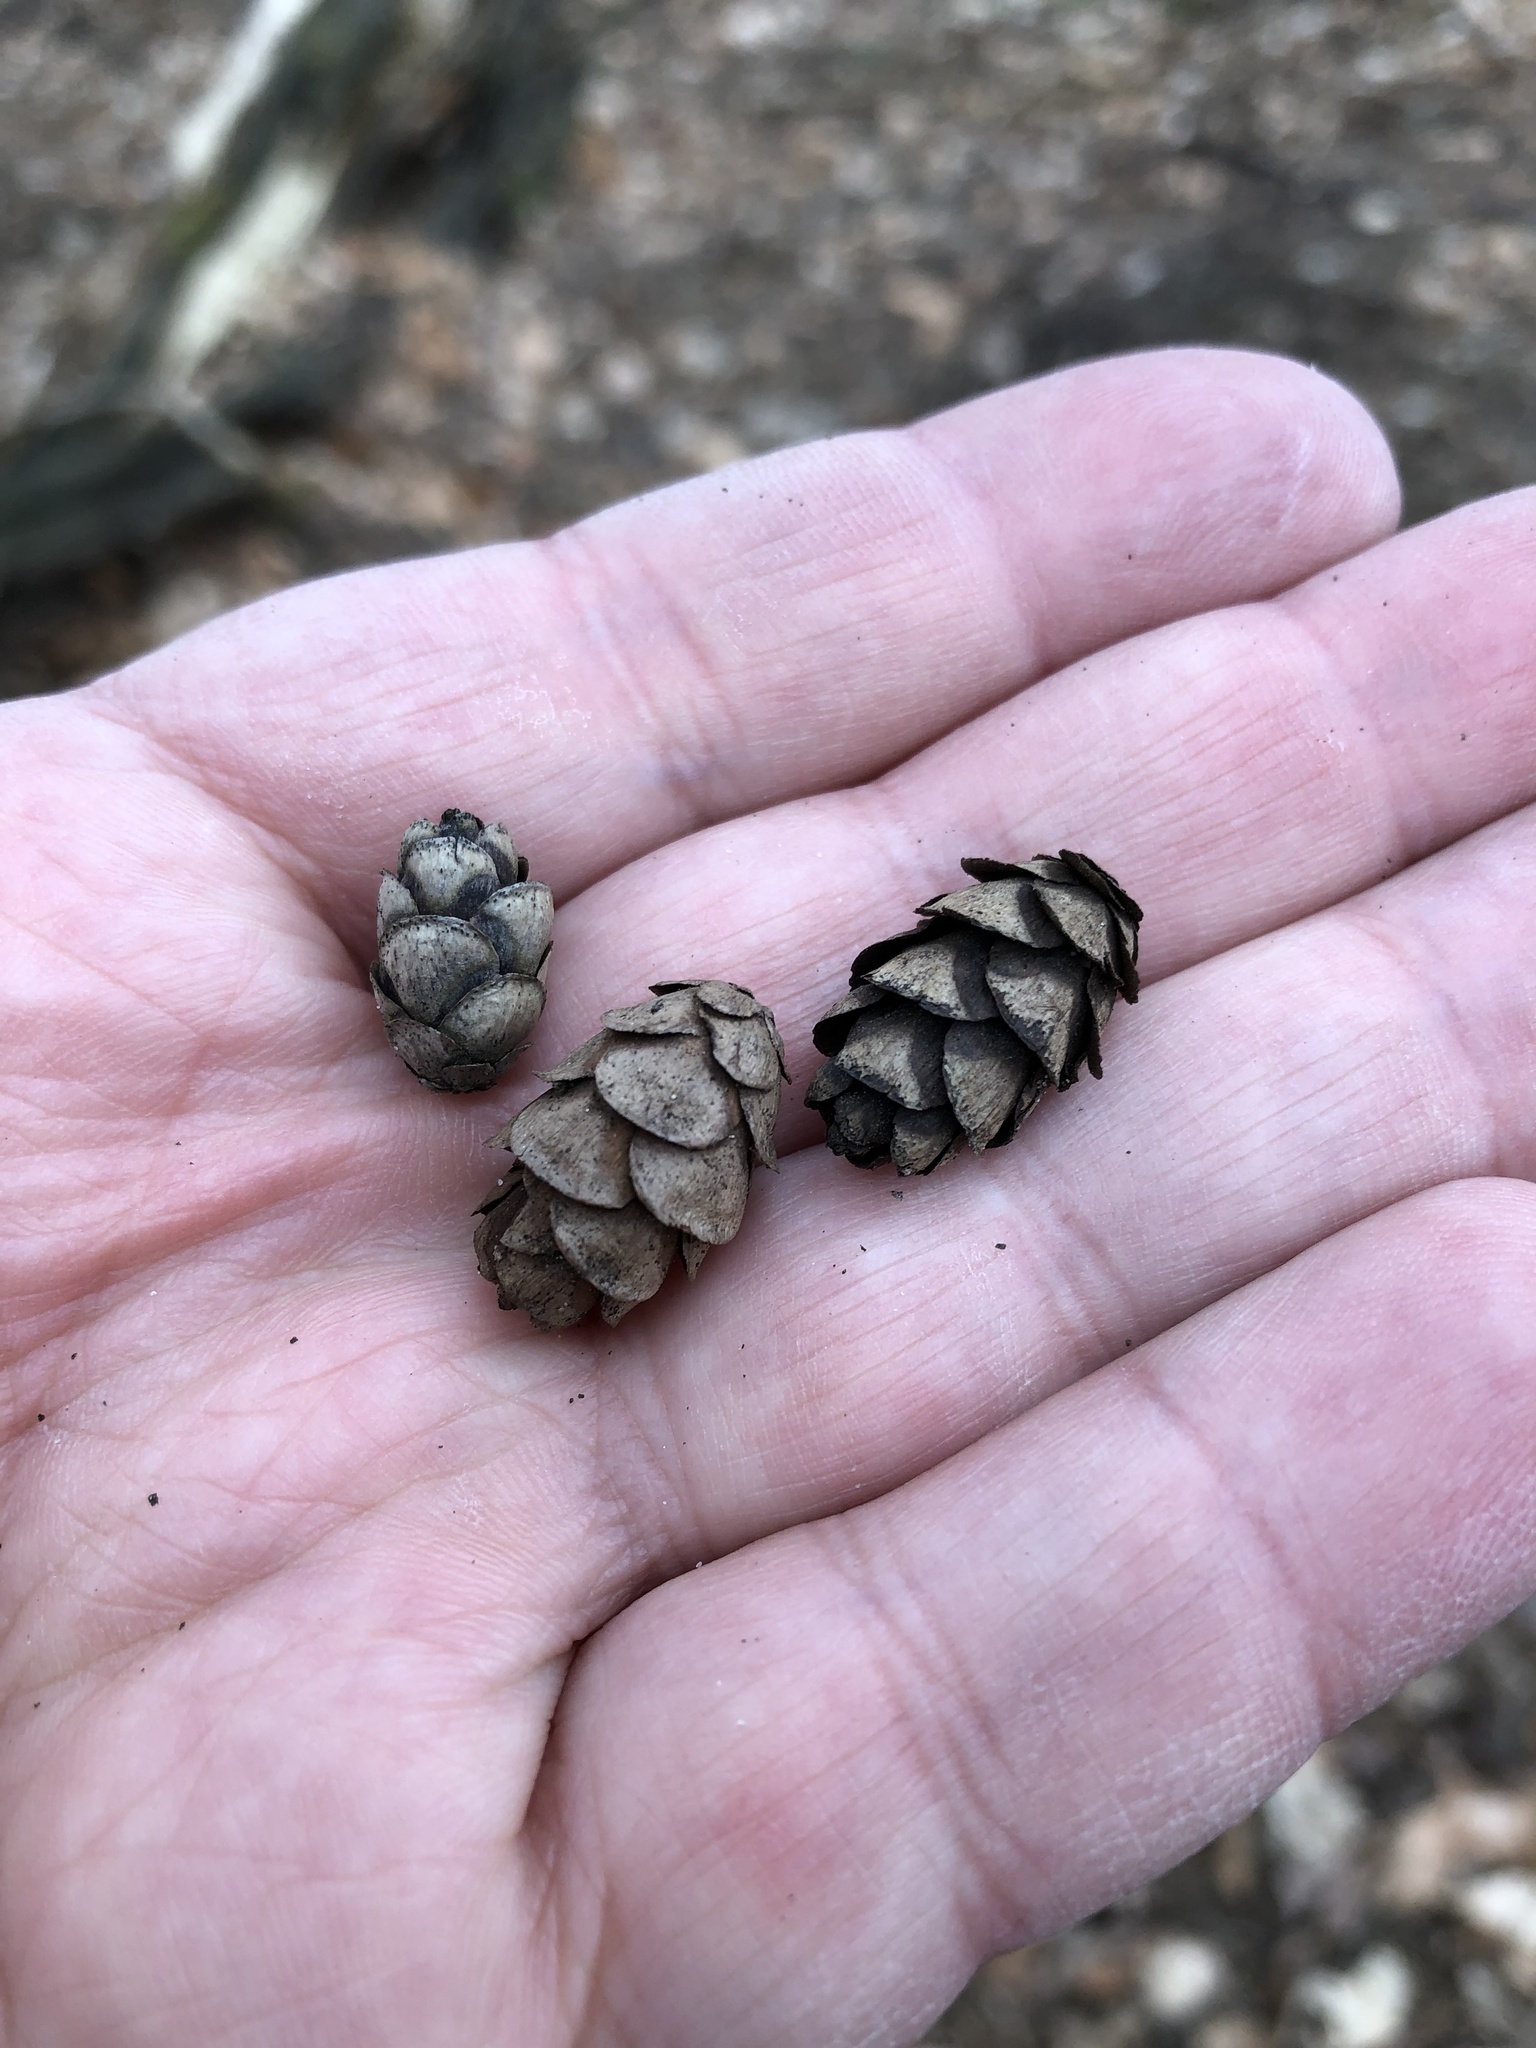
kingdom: Plantae
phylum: Tracheophyta
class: Pinopsida
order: Pinales
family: Pinaceae
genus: Tsuga
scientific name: Tsuga canadensis
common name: Eastern hemlock
